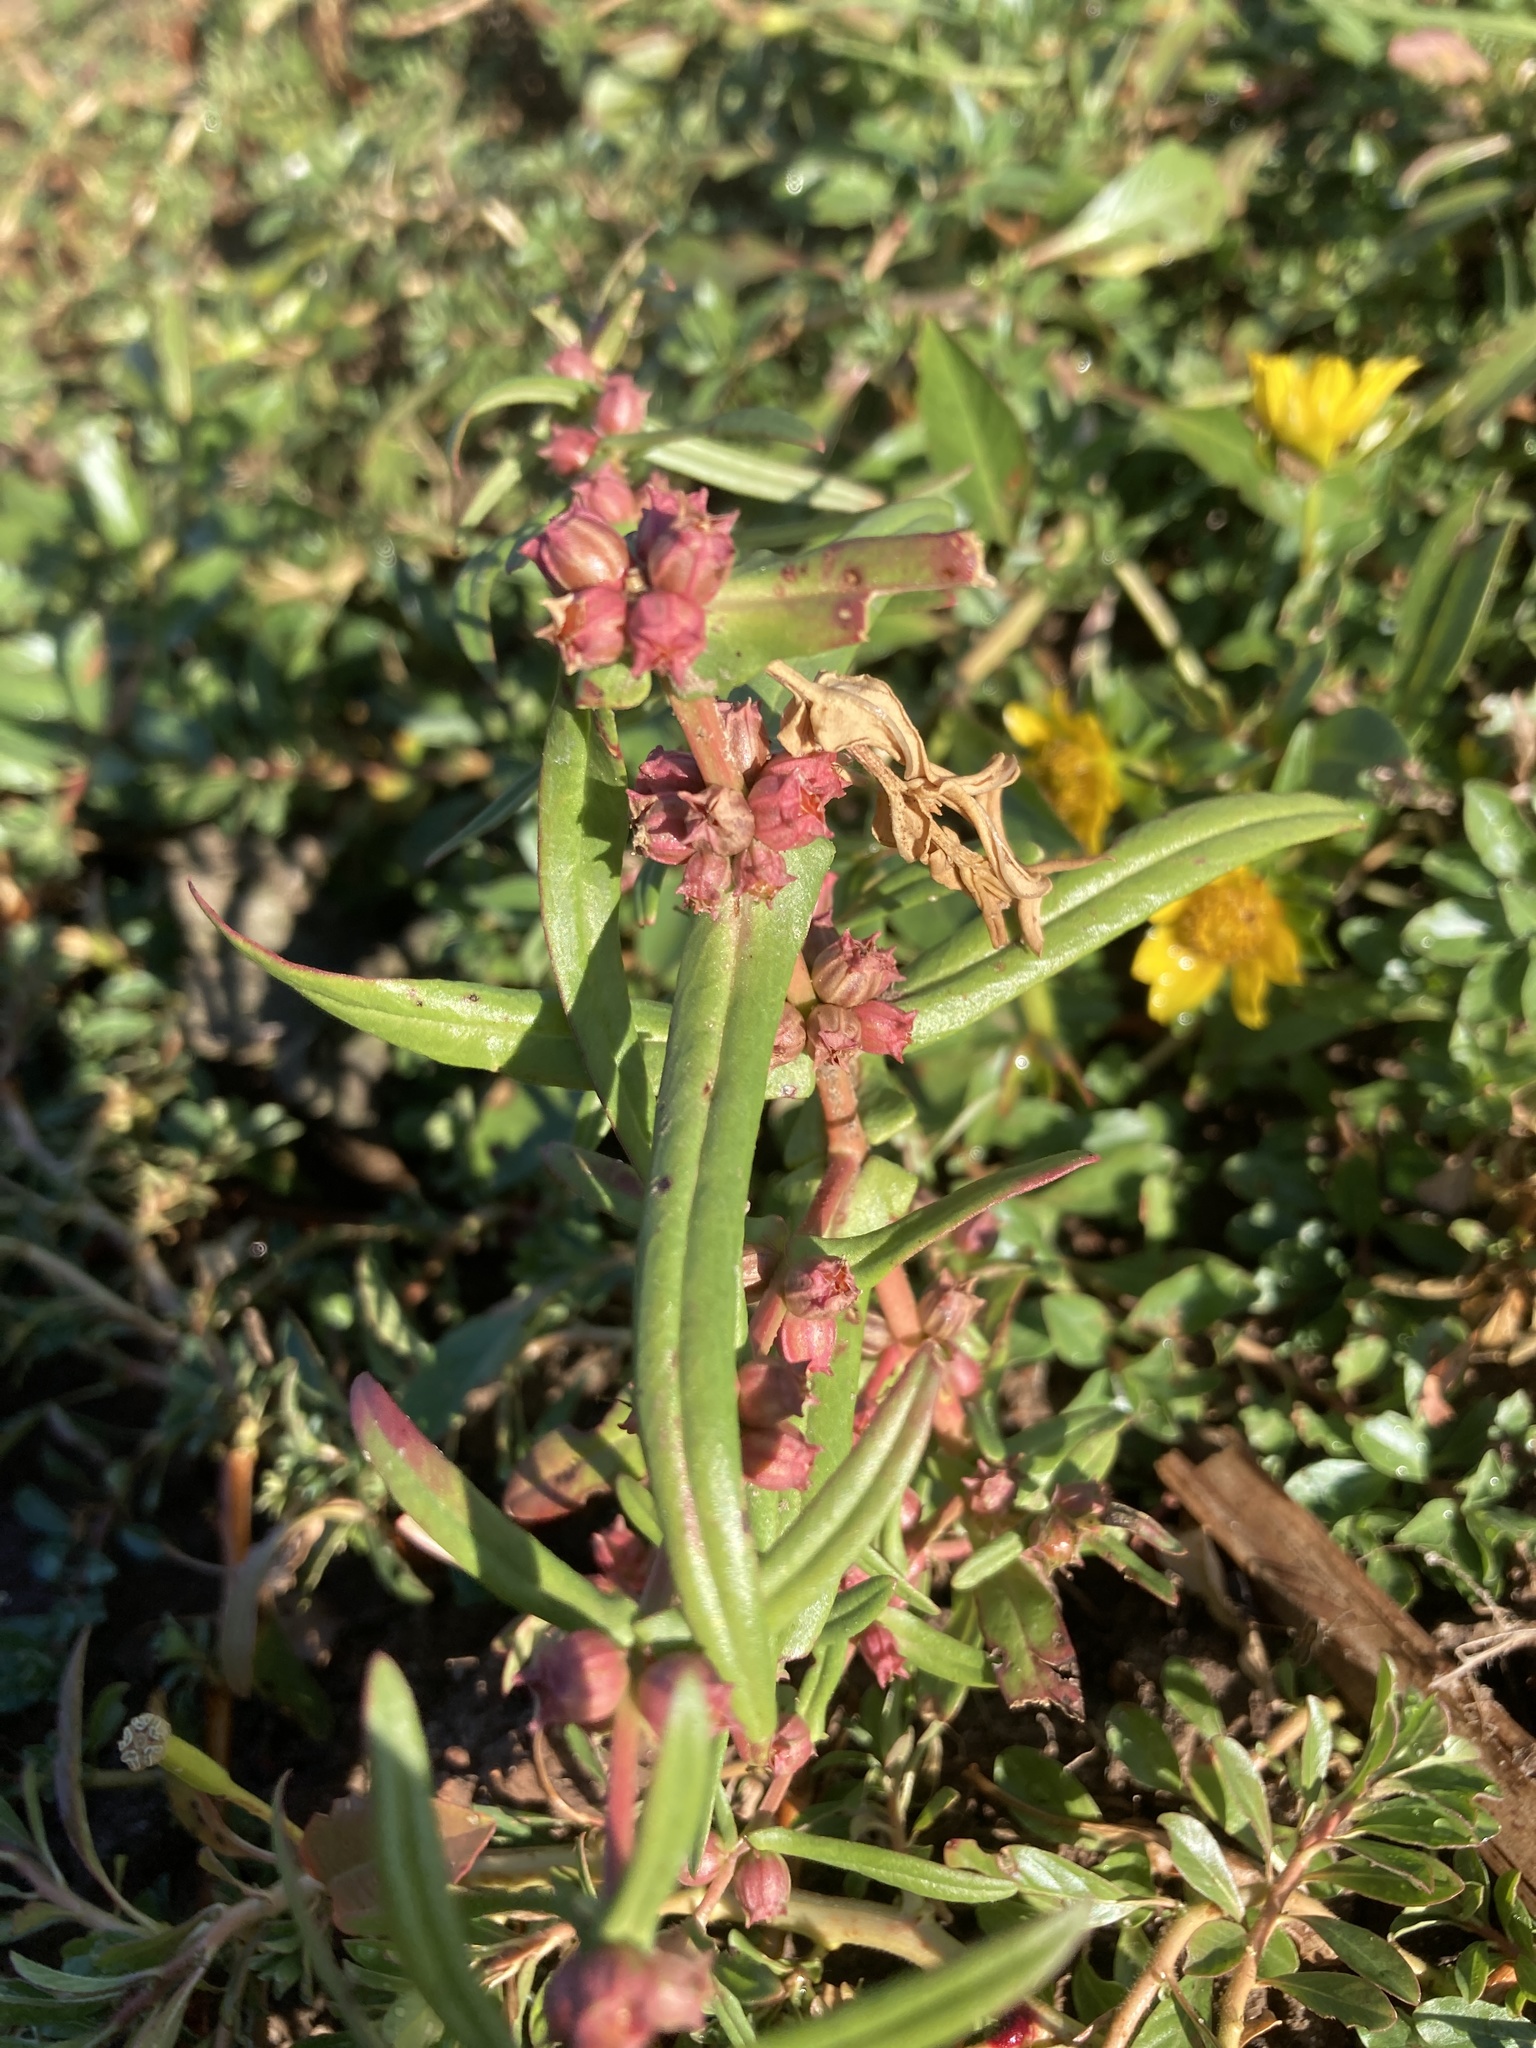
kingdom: Plantae
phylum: Tracheophyta
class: Magnoliopsida
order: Myrtales
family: Lythraceae
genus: Ammannia
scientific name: Ammannia coccinea
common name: Valley redstem
